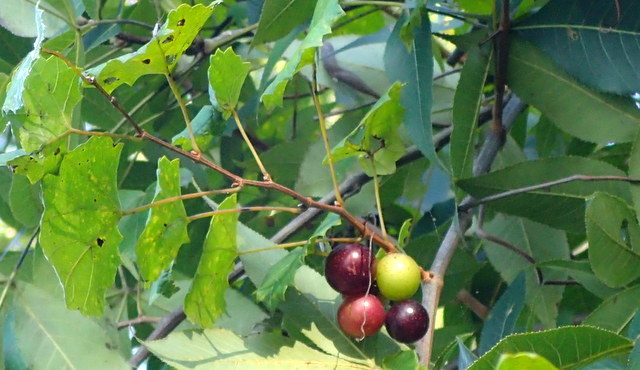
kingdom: Plantae
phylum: Tracheophyta
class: Magnoliopsida
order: Vitales
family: Vitaceae
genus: Vitis
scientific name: Vitis rotundifolia
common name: Muscadine grape
